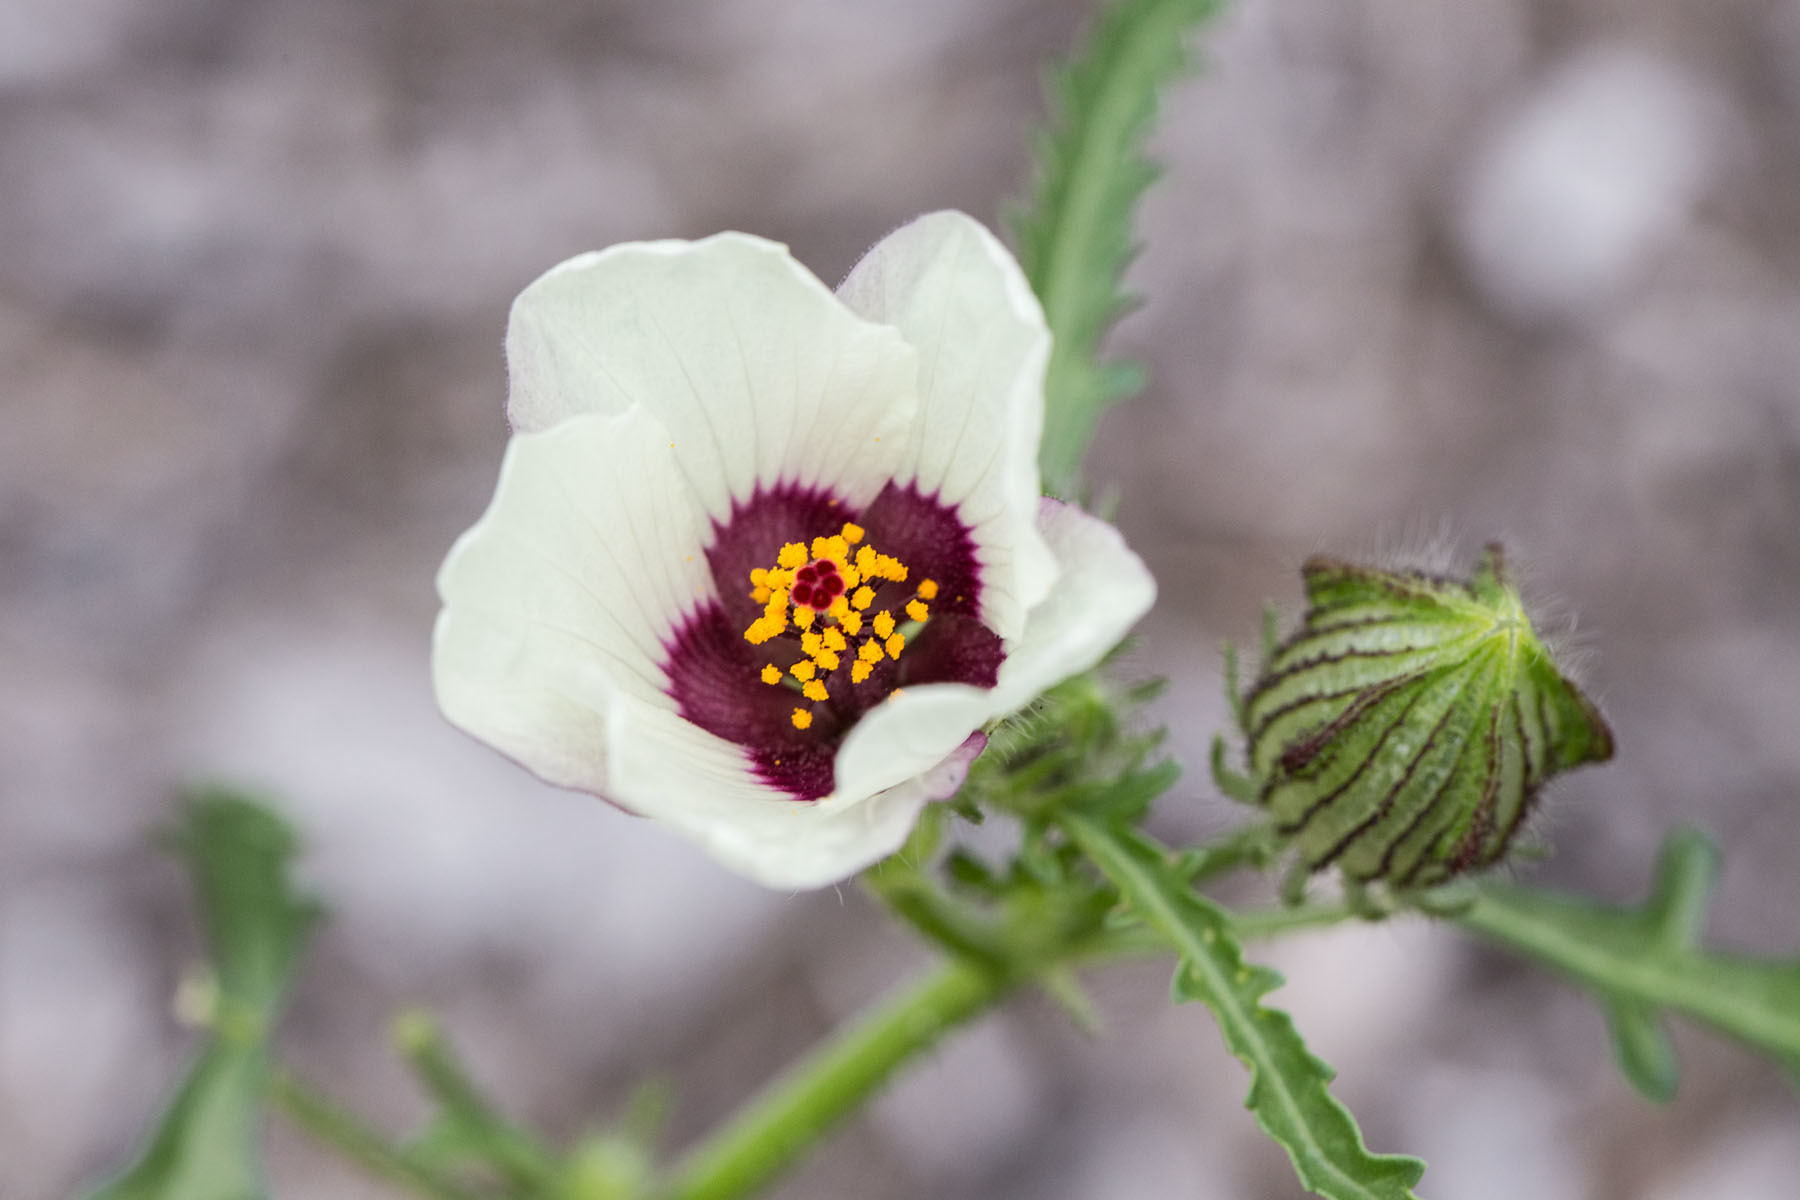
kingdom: Plantae
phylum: Tracheophyta
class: Magnoliopsida
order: Malvales
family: Malvaceae
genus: Hibiscus
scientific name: Hibiscus trionum
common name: Bladder ketmia
